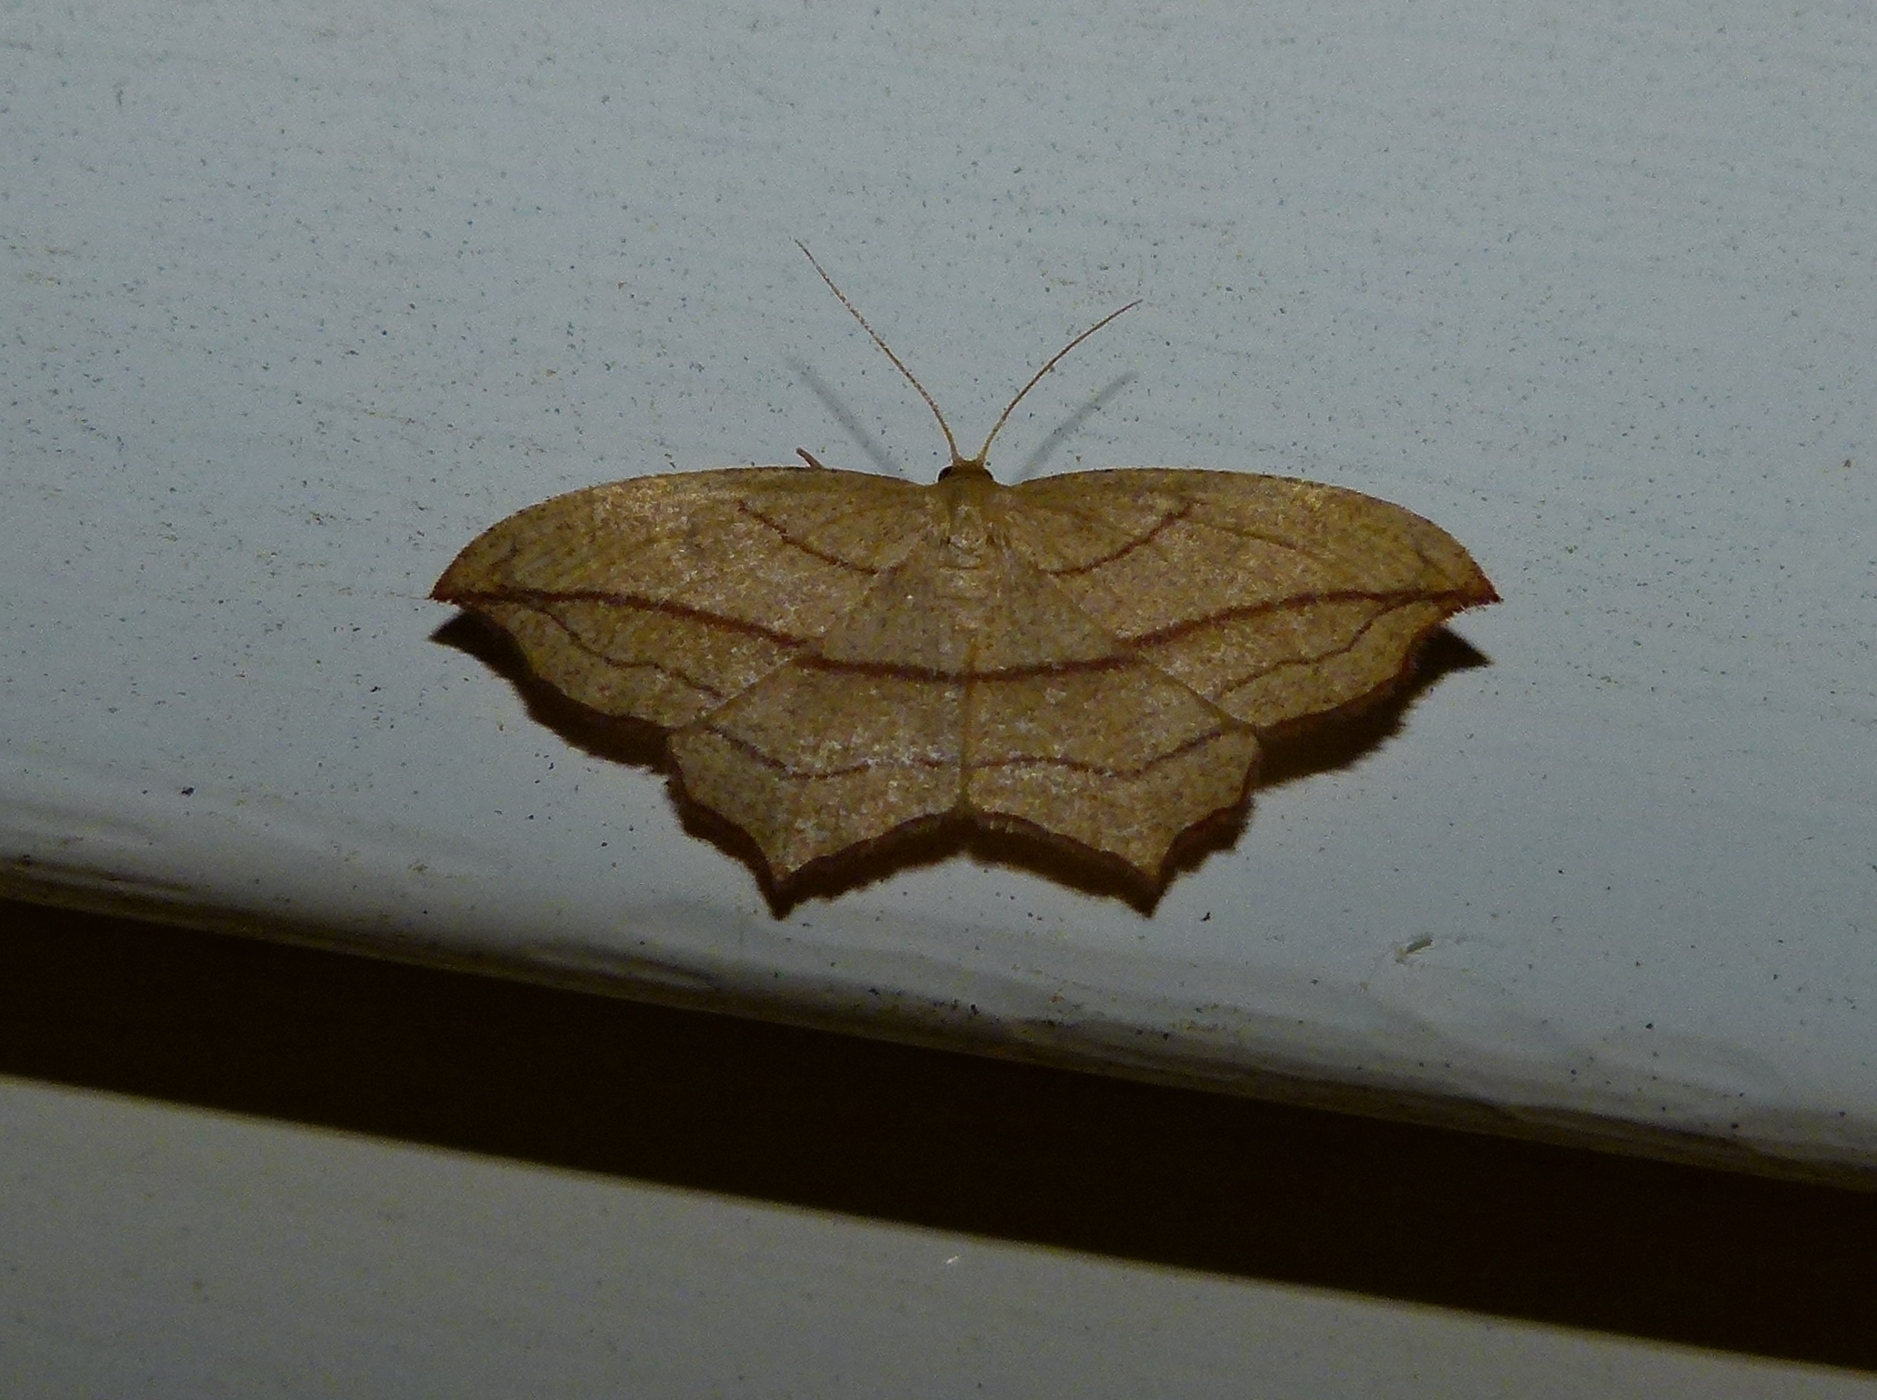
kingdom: Animalia
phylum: Arthropoda
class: Insecta
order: Lepidoptera
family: Geometridae
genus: Timandra
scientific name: Timandra amaturaria
